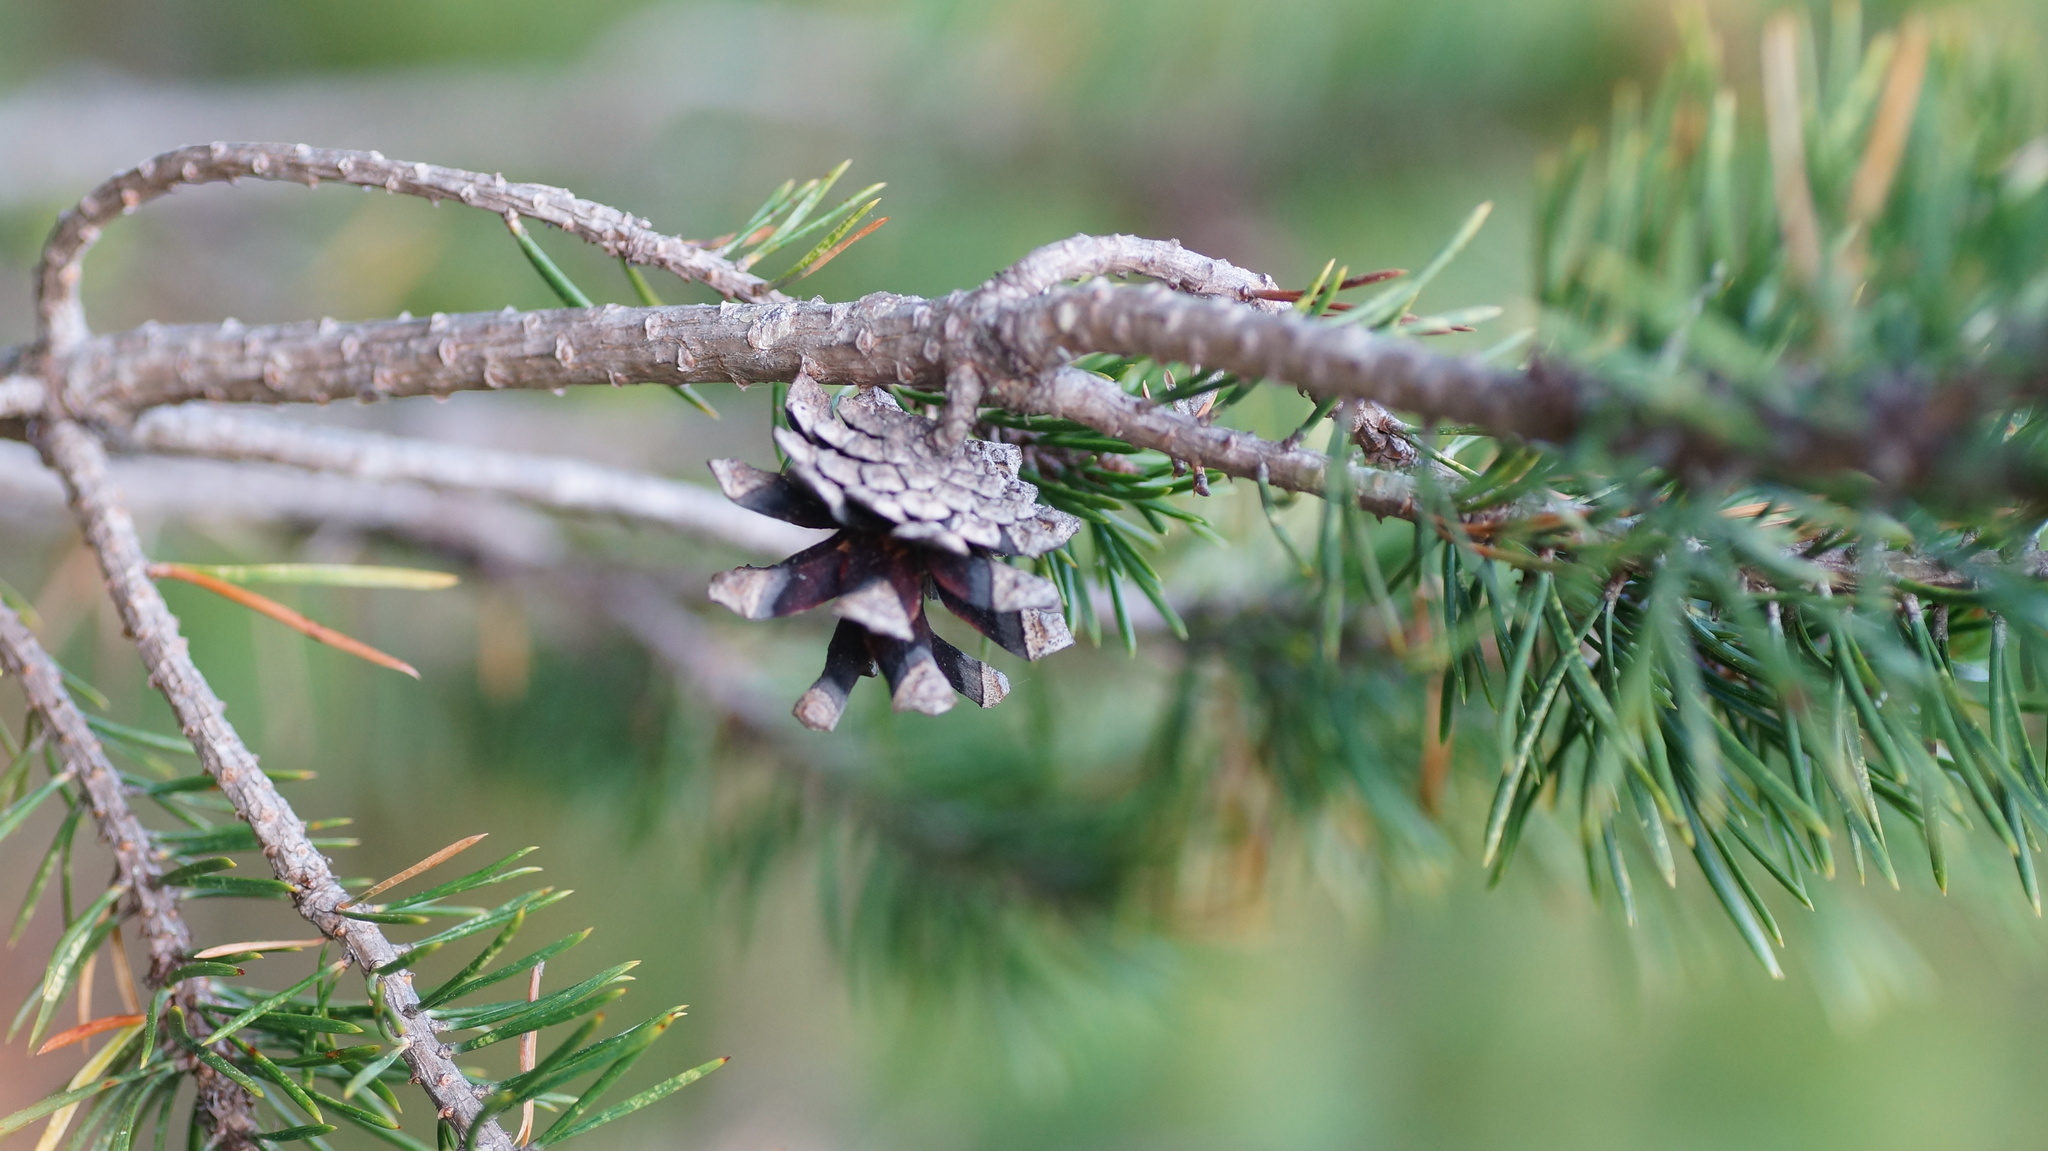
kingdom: Plantae
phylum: Tracheophyta
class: Pinopsida
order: Pinales
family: Pinaceae
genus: Pinus
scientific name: Pinus sylvestris
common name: Scots pine
